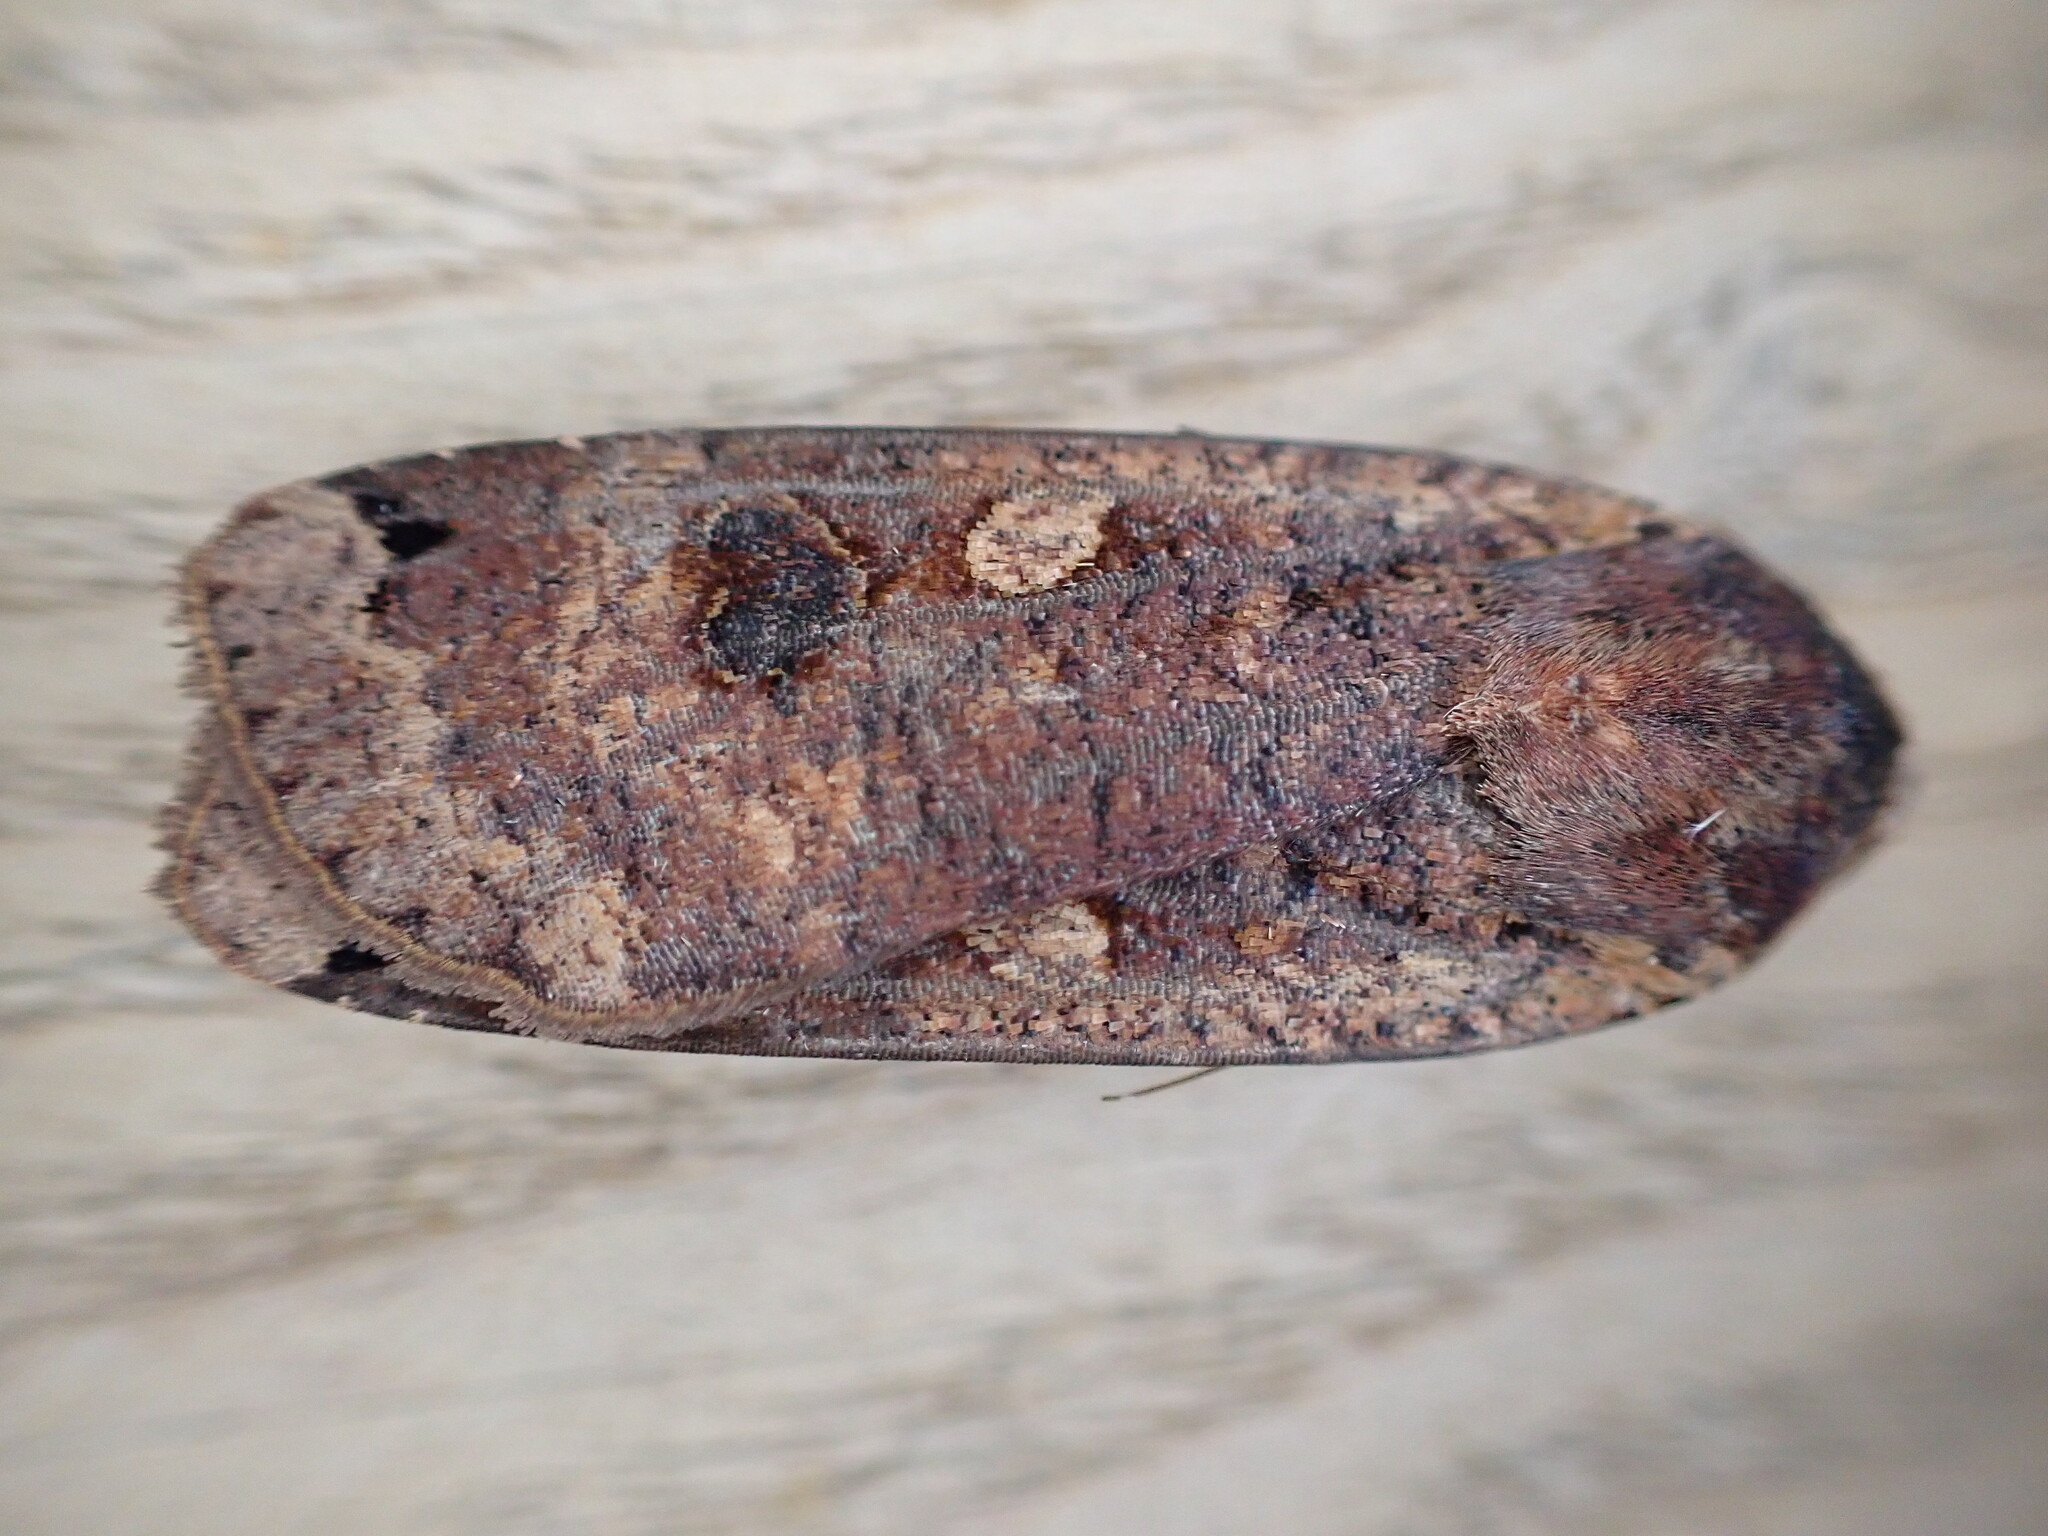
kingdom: Animalia
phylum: Arthropoda
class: Insecta
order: Lepidoptera
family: Noctuidae
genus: Noctua
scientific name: Noctua pronuba
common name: Large yellow underwing
